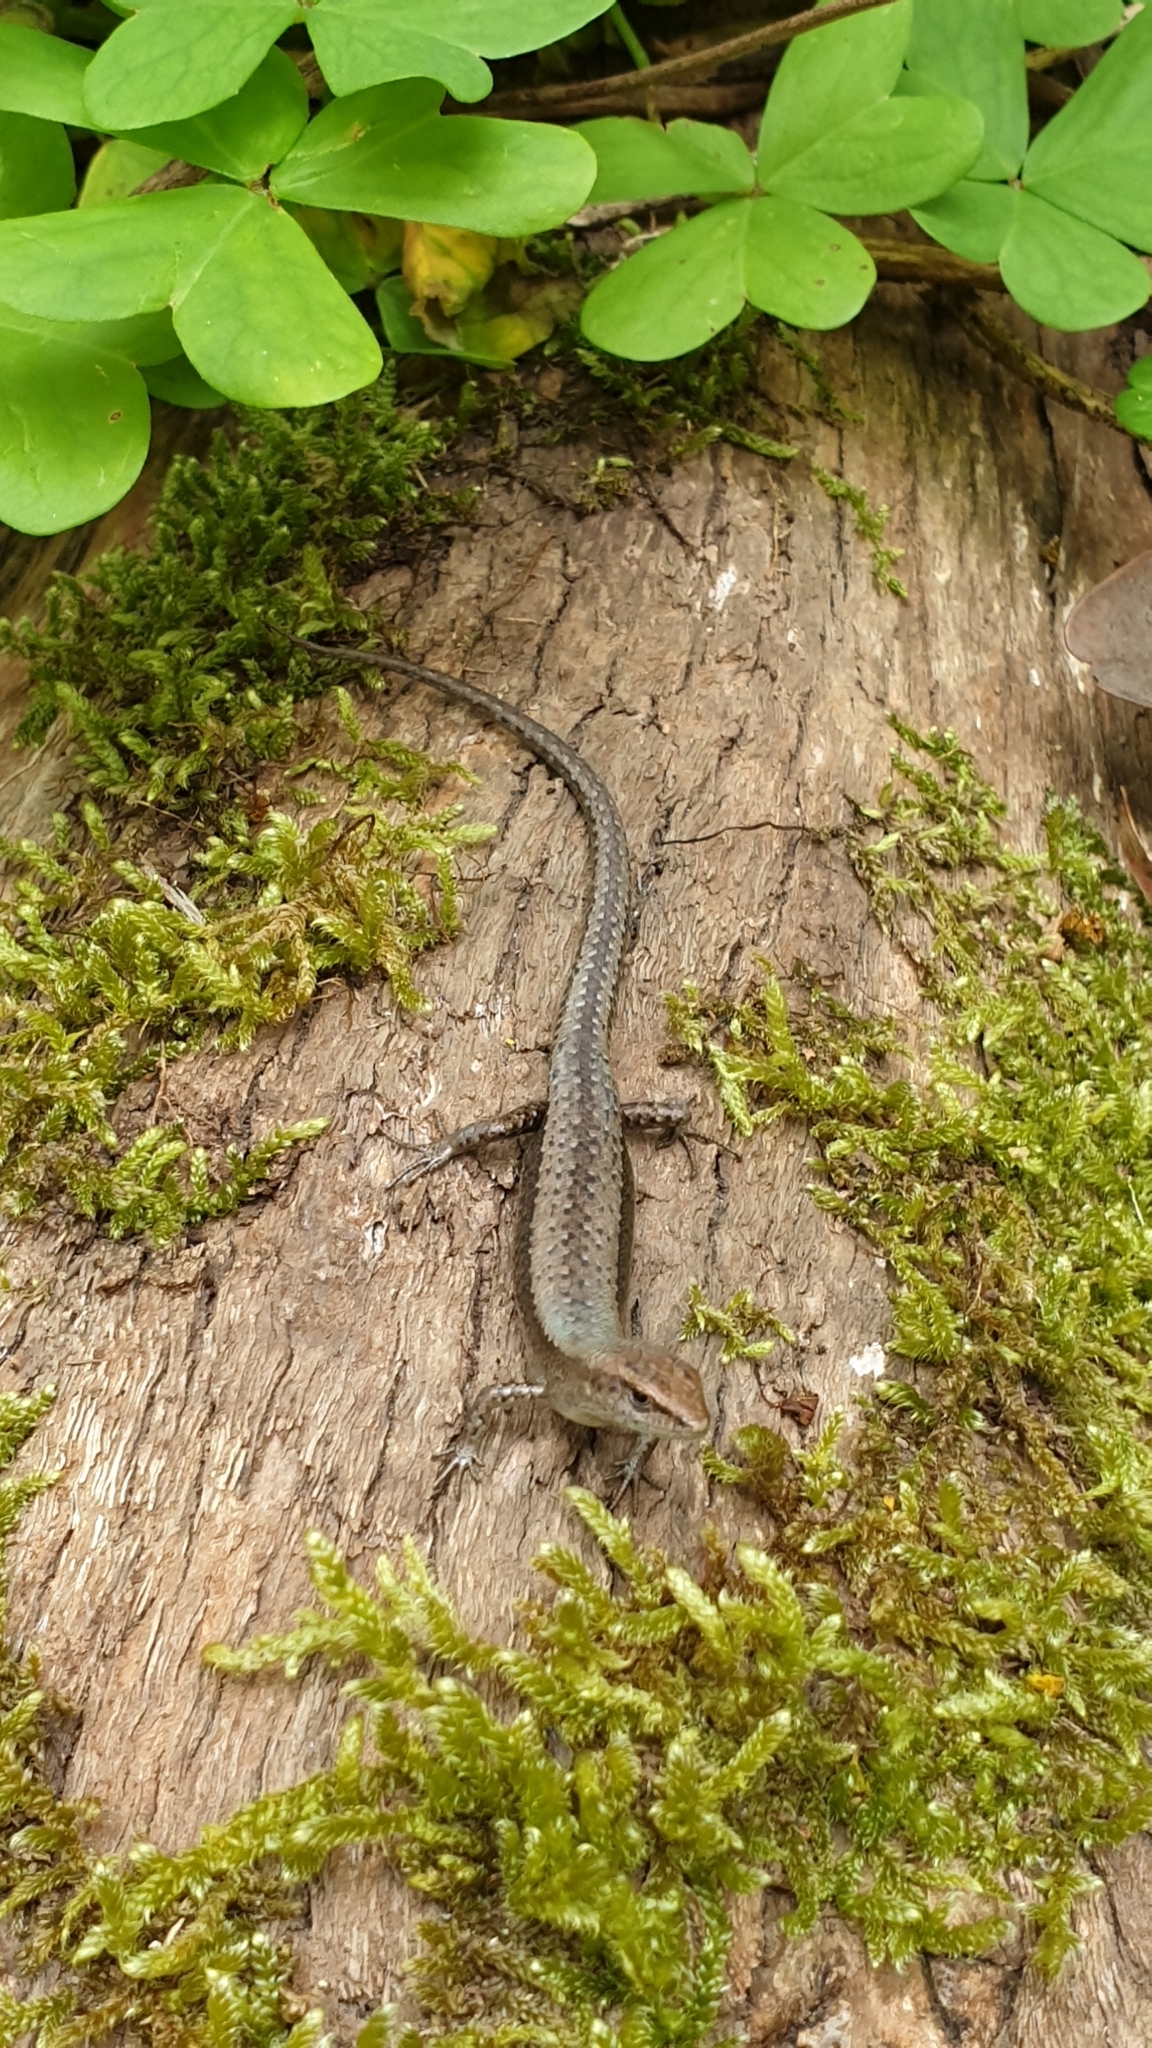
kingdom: Animalia
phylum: Chordata
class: Squamata
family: Scincidae
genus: Lampropholis
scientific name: Lampropholis guichenoti
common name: Garden skink
